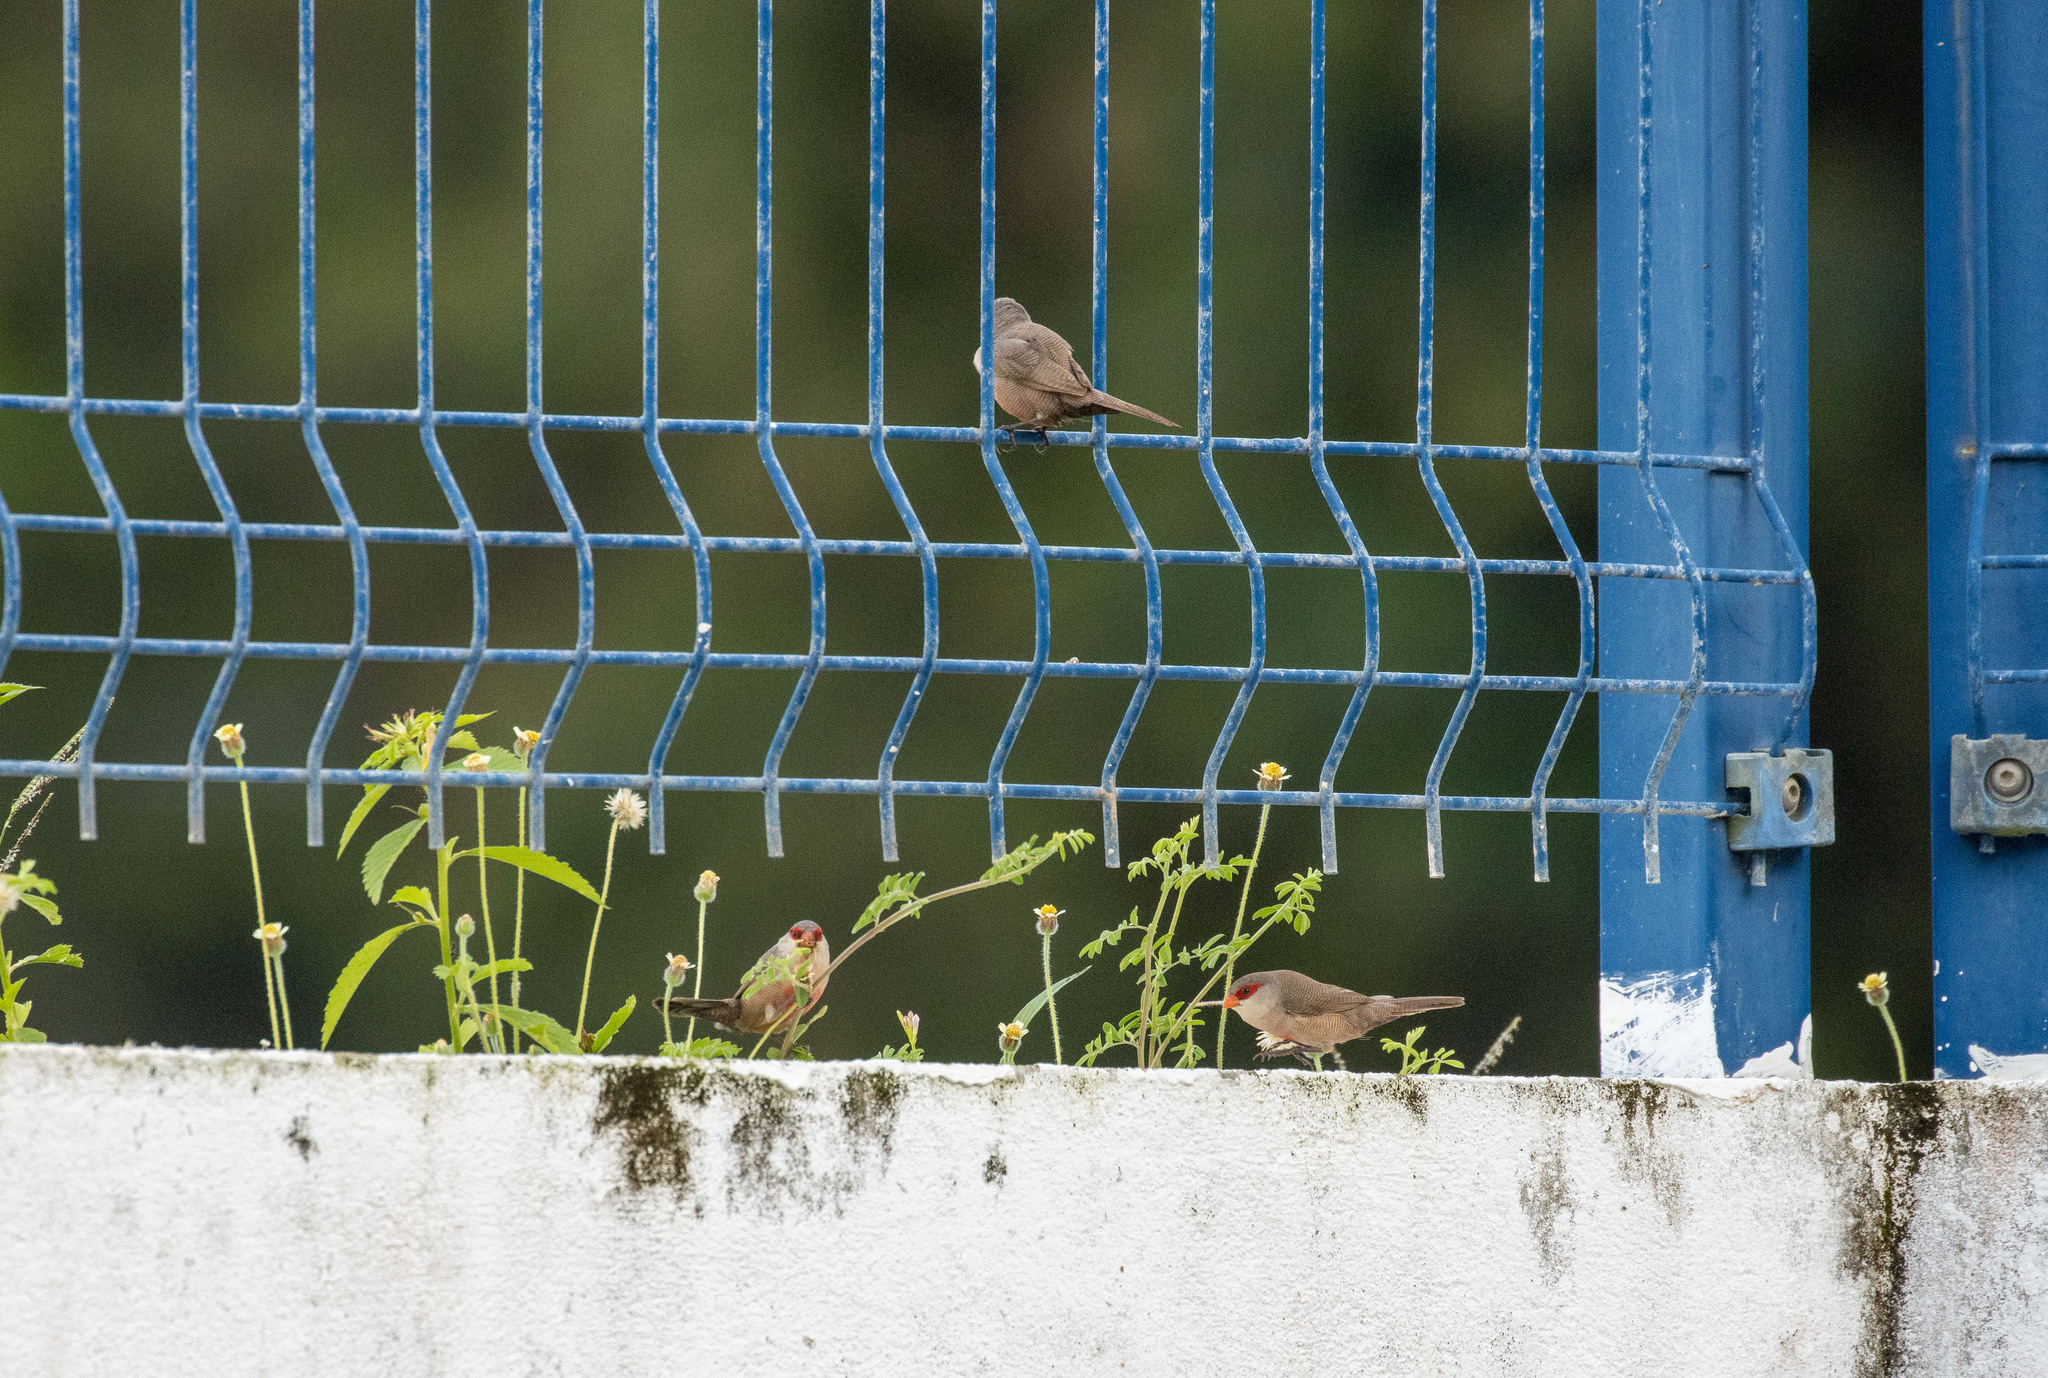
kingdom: Animalia
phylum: Chordata
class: Aves
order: Passeriformes
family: Estrildidae
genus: Estrilda
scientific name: Estrilda astrild
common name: Common waxbill
